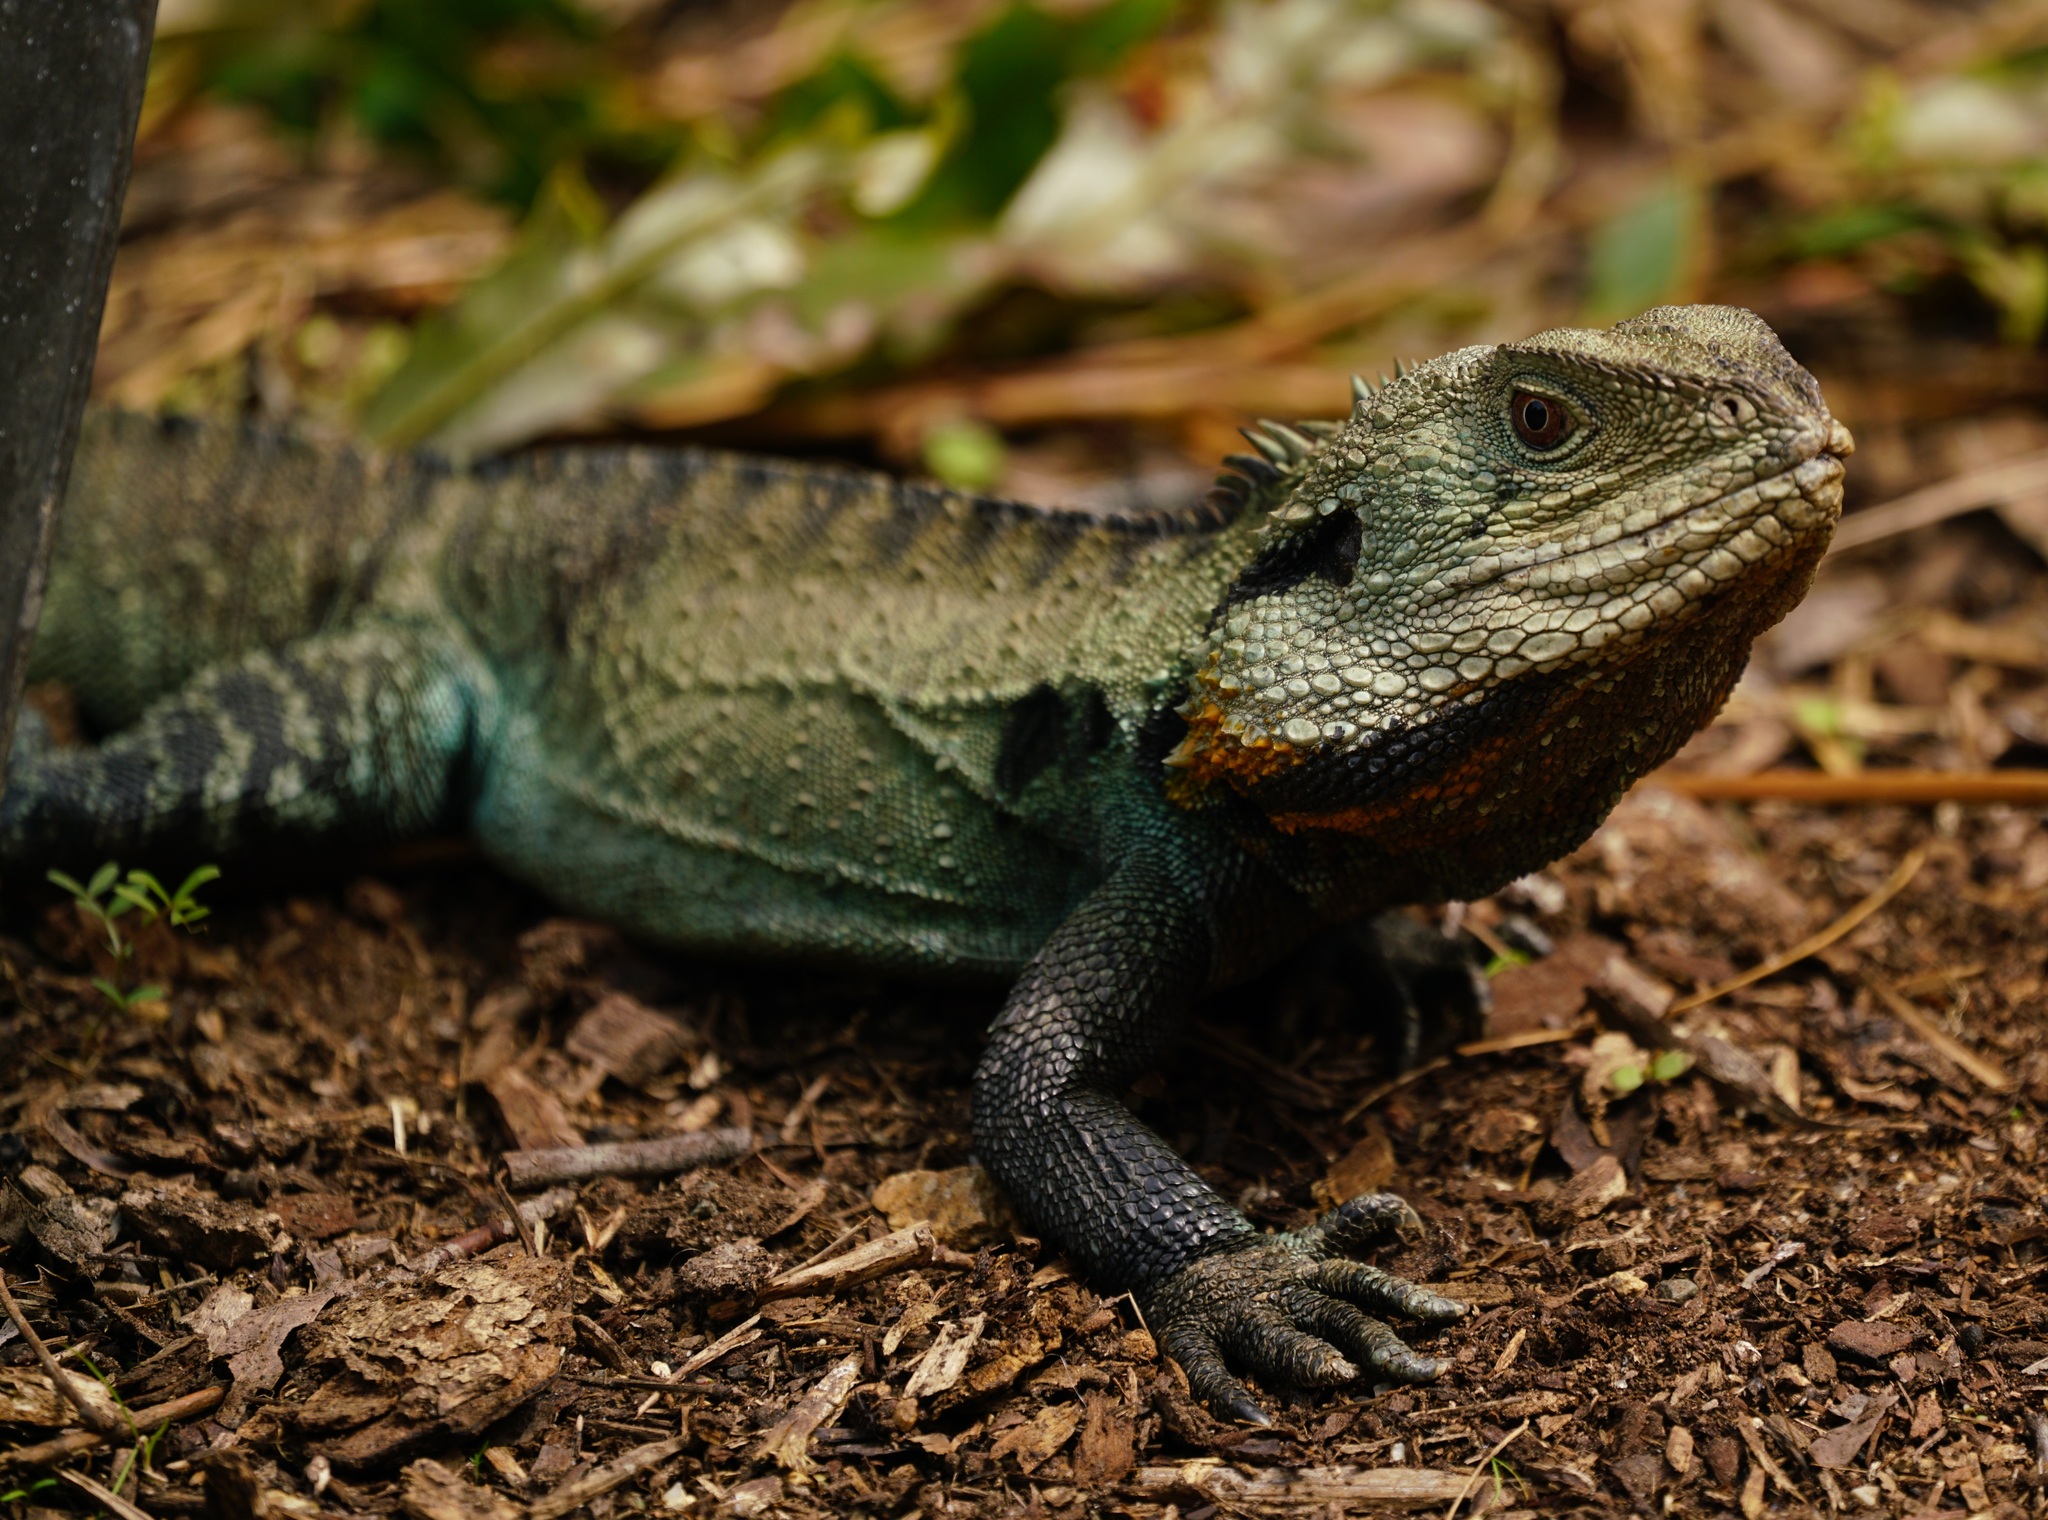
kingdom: Animalia
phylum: Chordata
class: Squamata
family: Agamidae
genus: Intellagama
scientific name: Intellagama lesueurii
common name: Eastern water dragon
